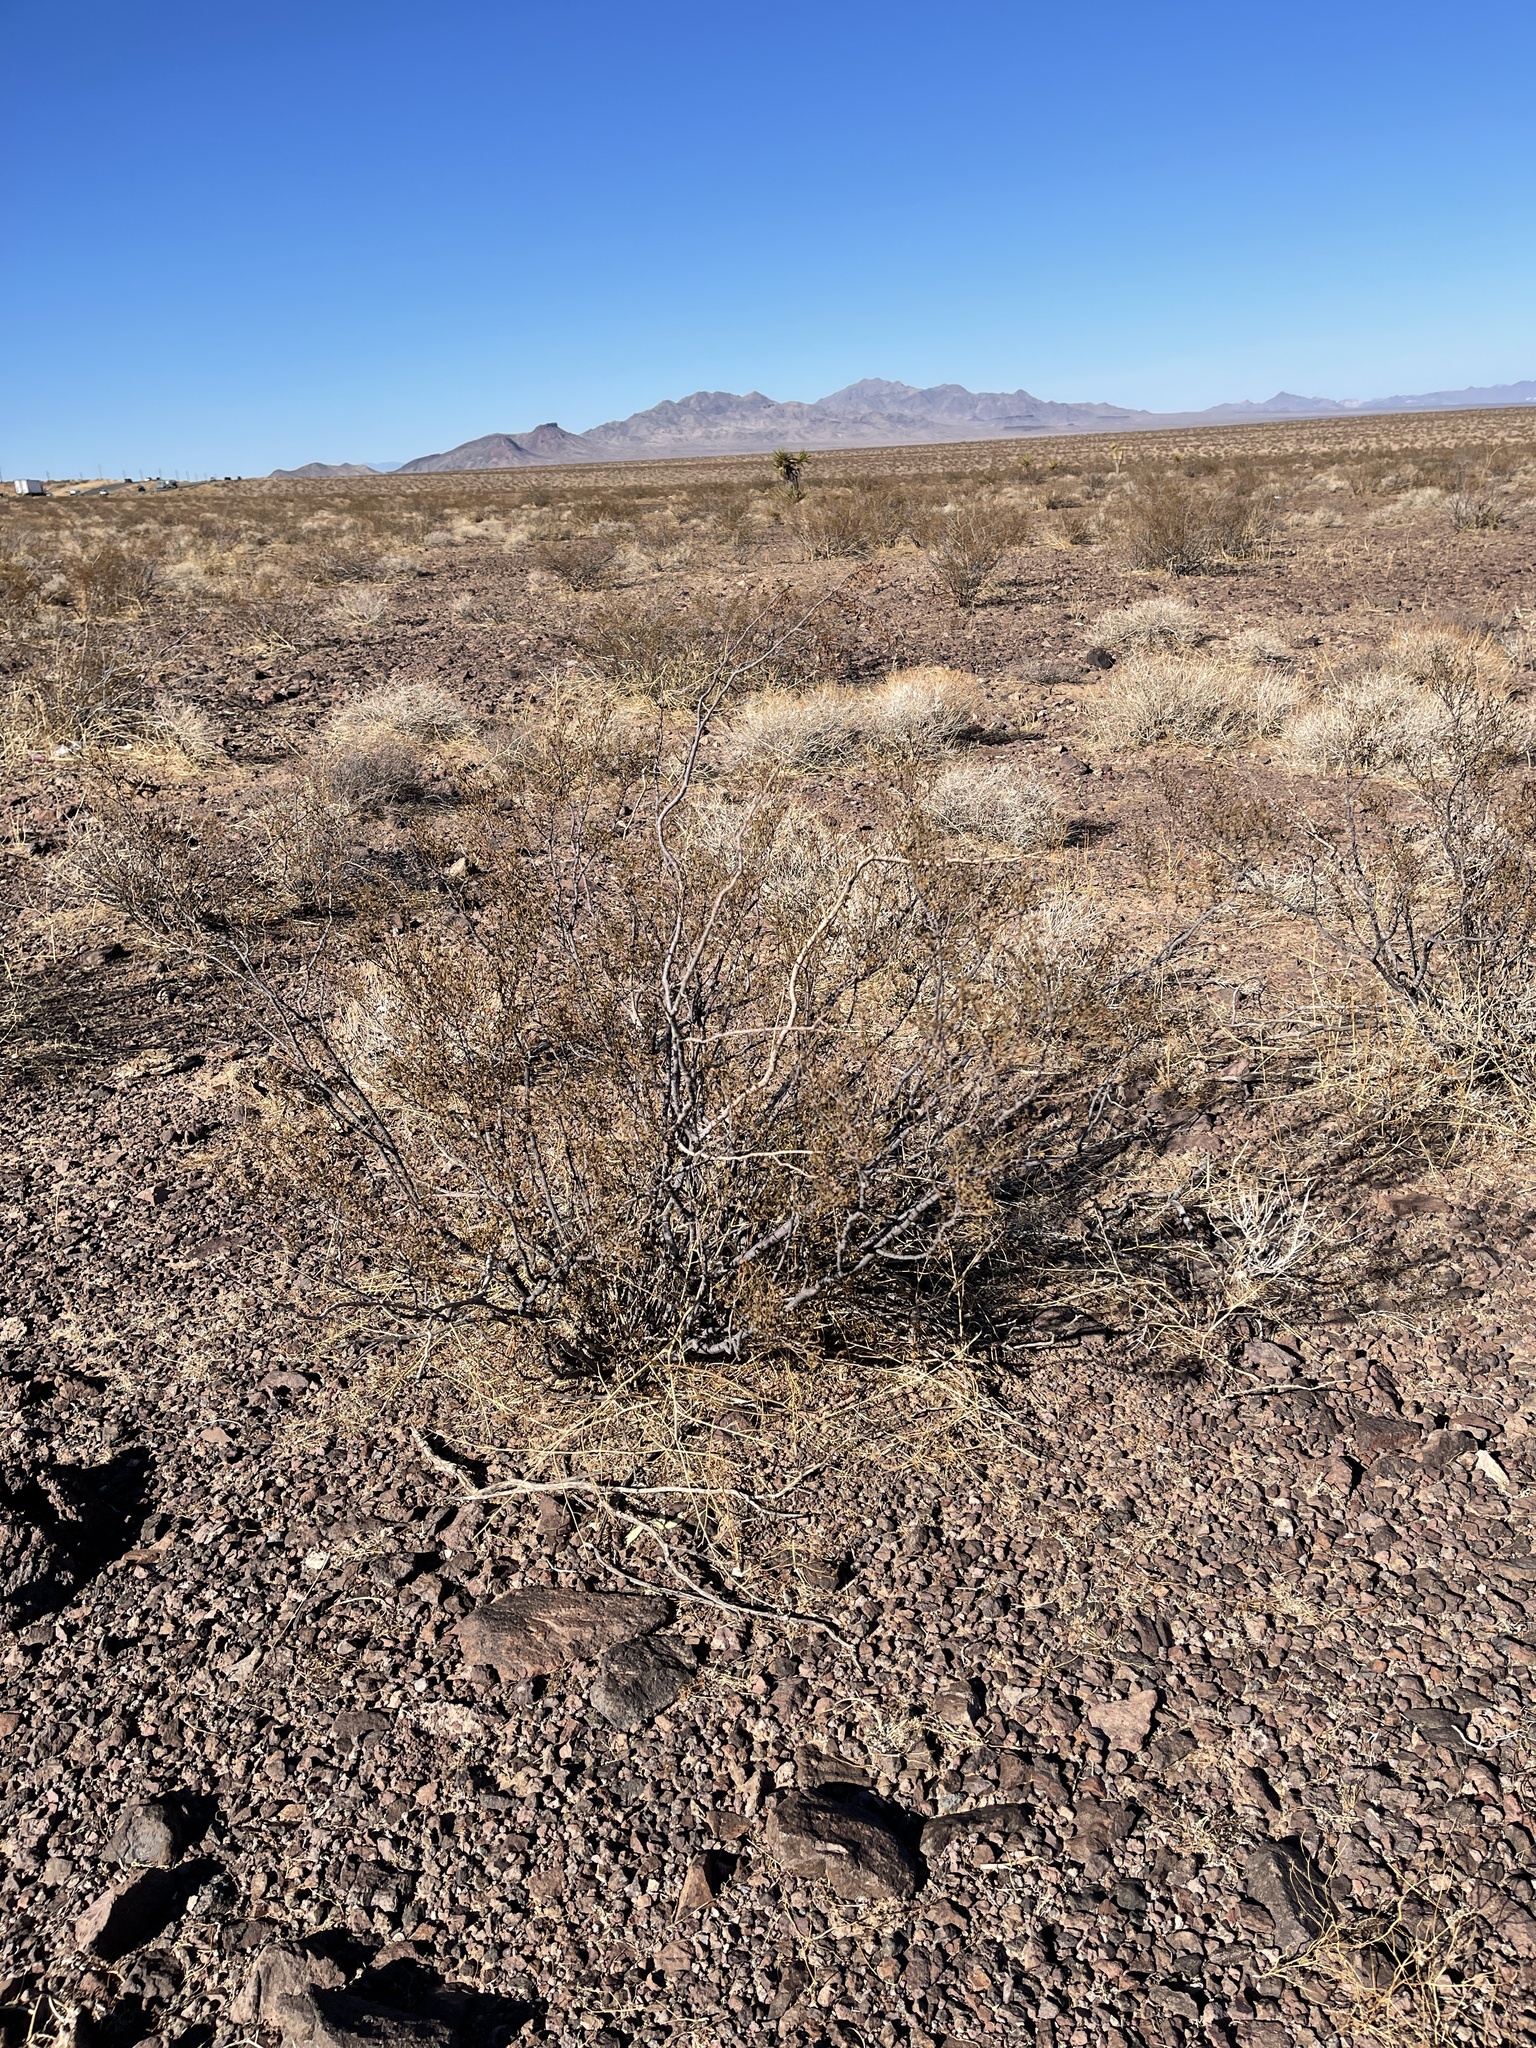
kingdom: Plantae
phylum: Tracheophyta
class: Magnoliopsida
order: Zygophyllales
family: Zygophyllaceae
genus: Larrea
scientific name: Larrea tridentata
